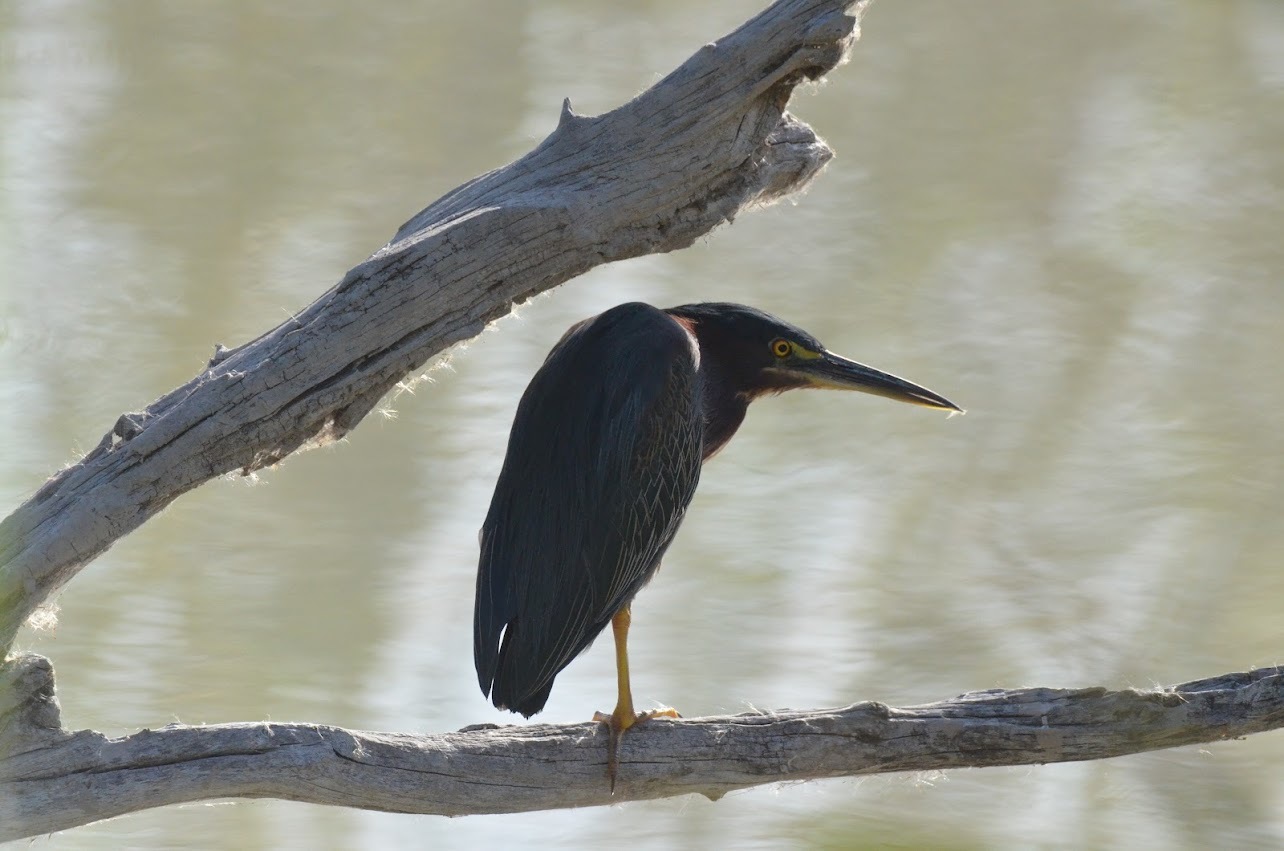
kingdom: Animalia
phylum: Chordata
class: Aves
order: Pelecaniformes
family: Ardeidae
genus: Butorides
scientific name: Butorides virescens
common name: Green heron
